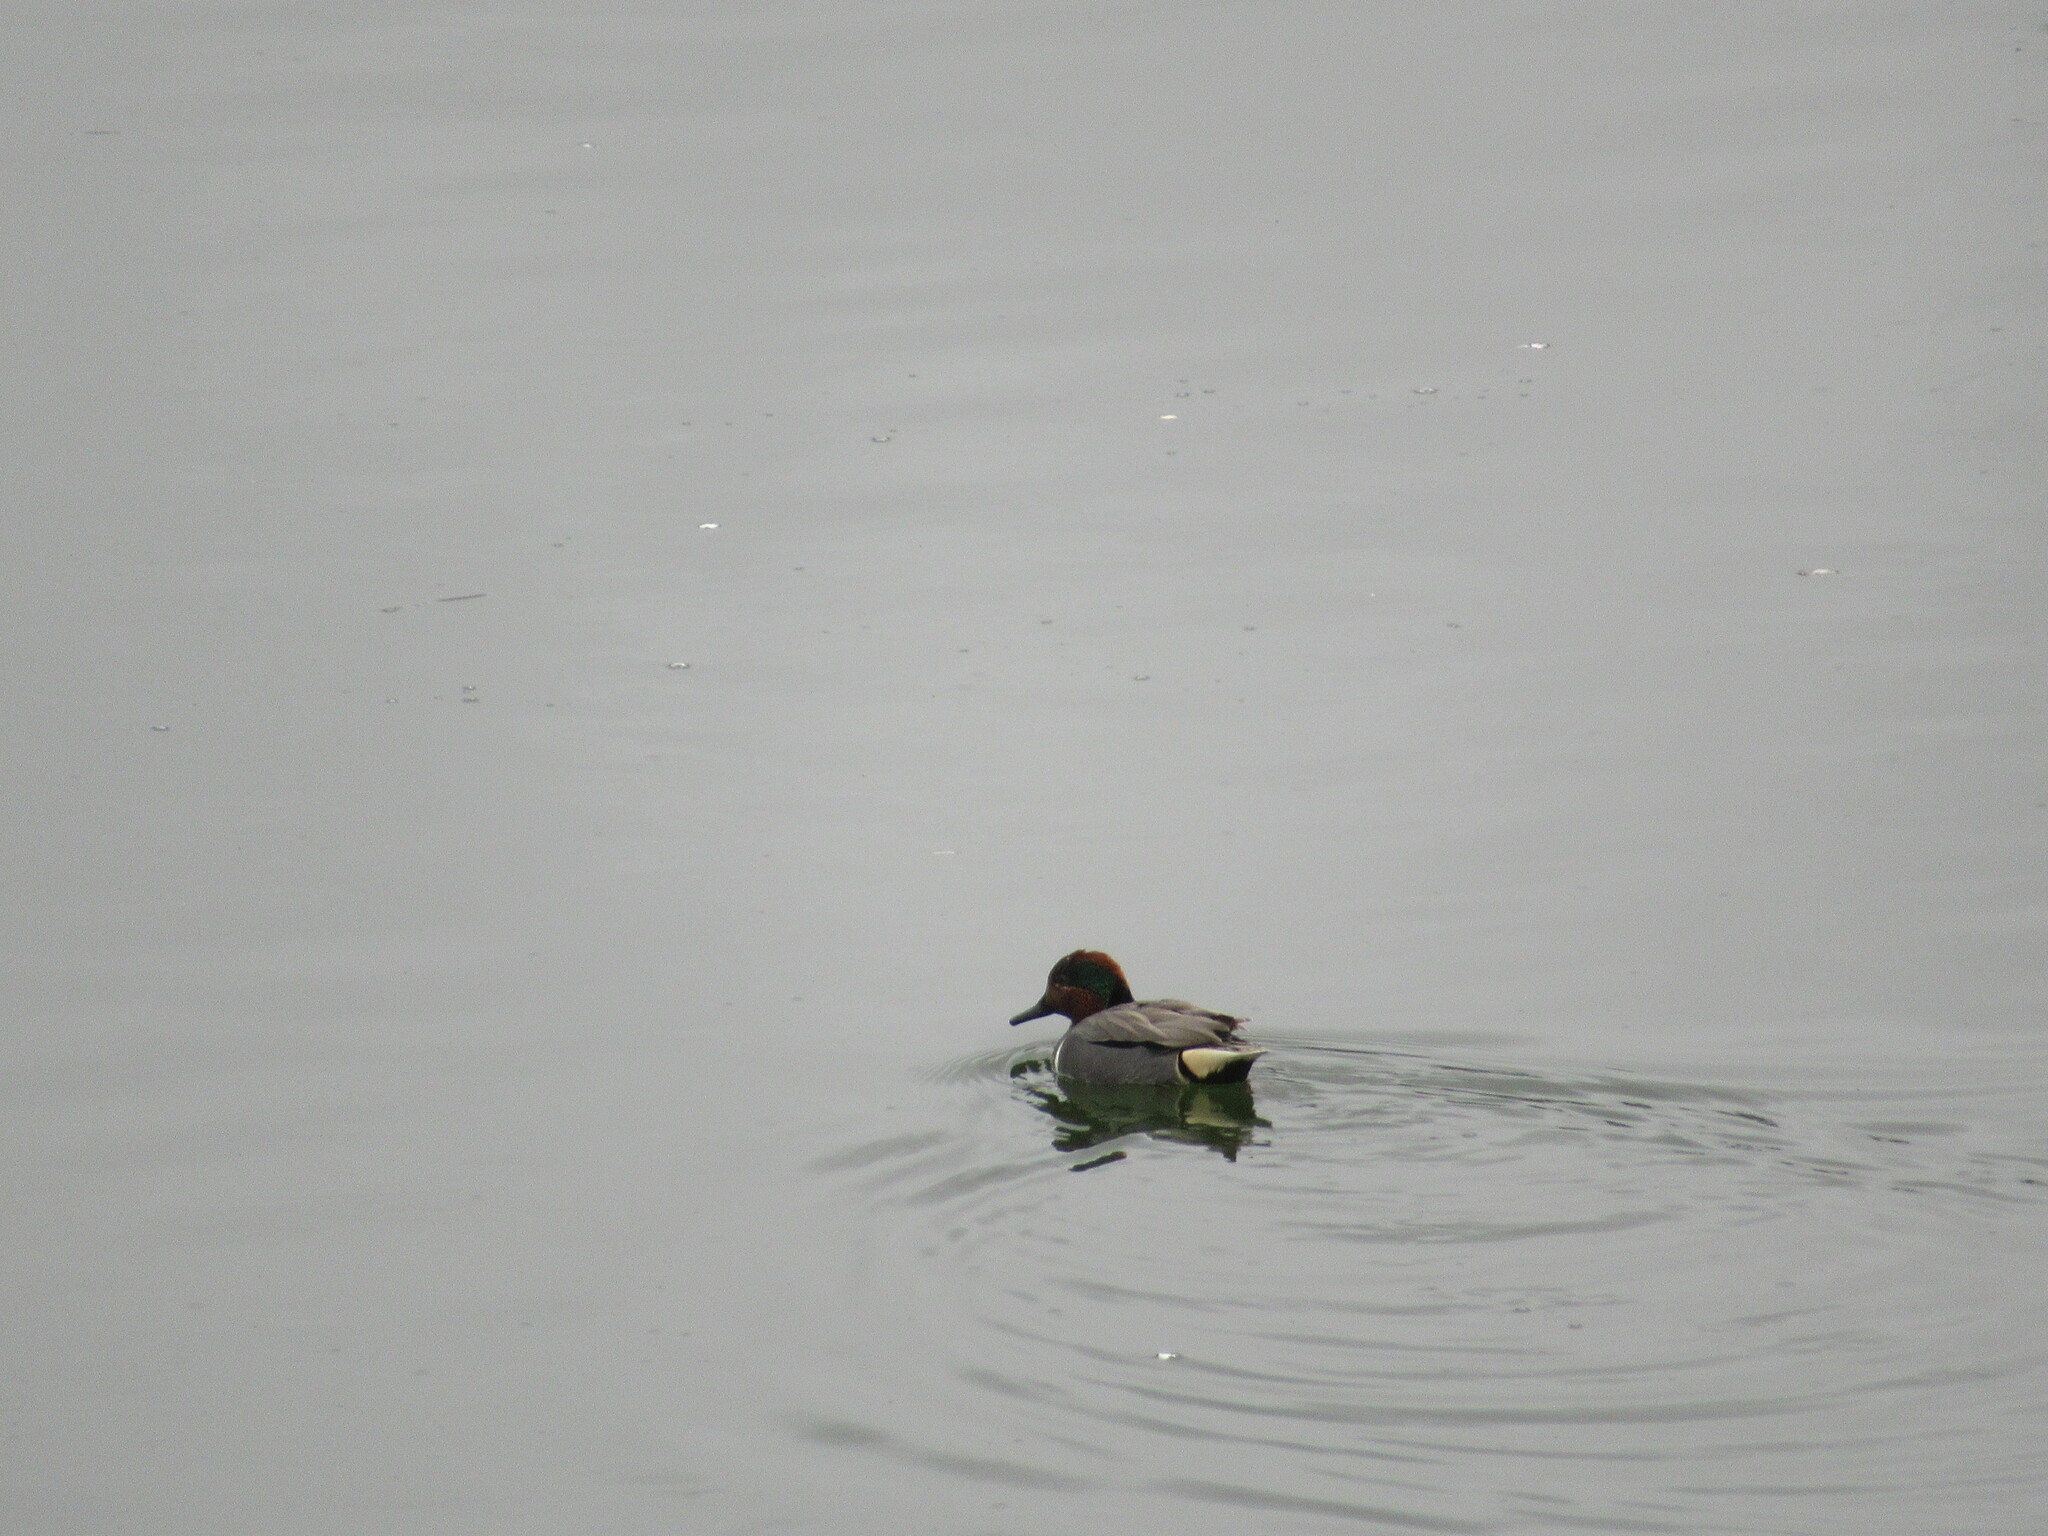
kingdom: Animalia
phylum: Chordata
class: Aves
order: Anseriformes
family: Anatidae
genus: Anas
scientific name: Anas crecca
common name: Eurasian teal
